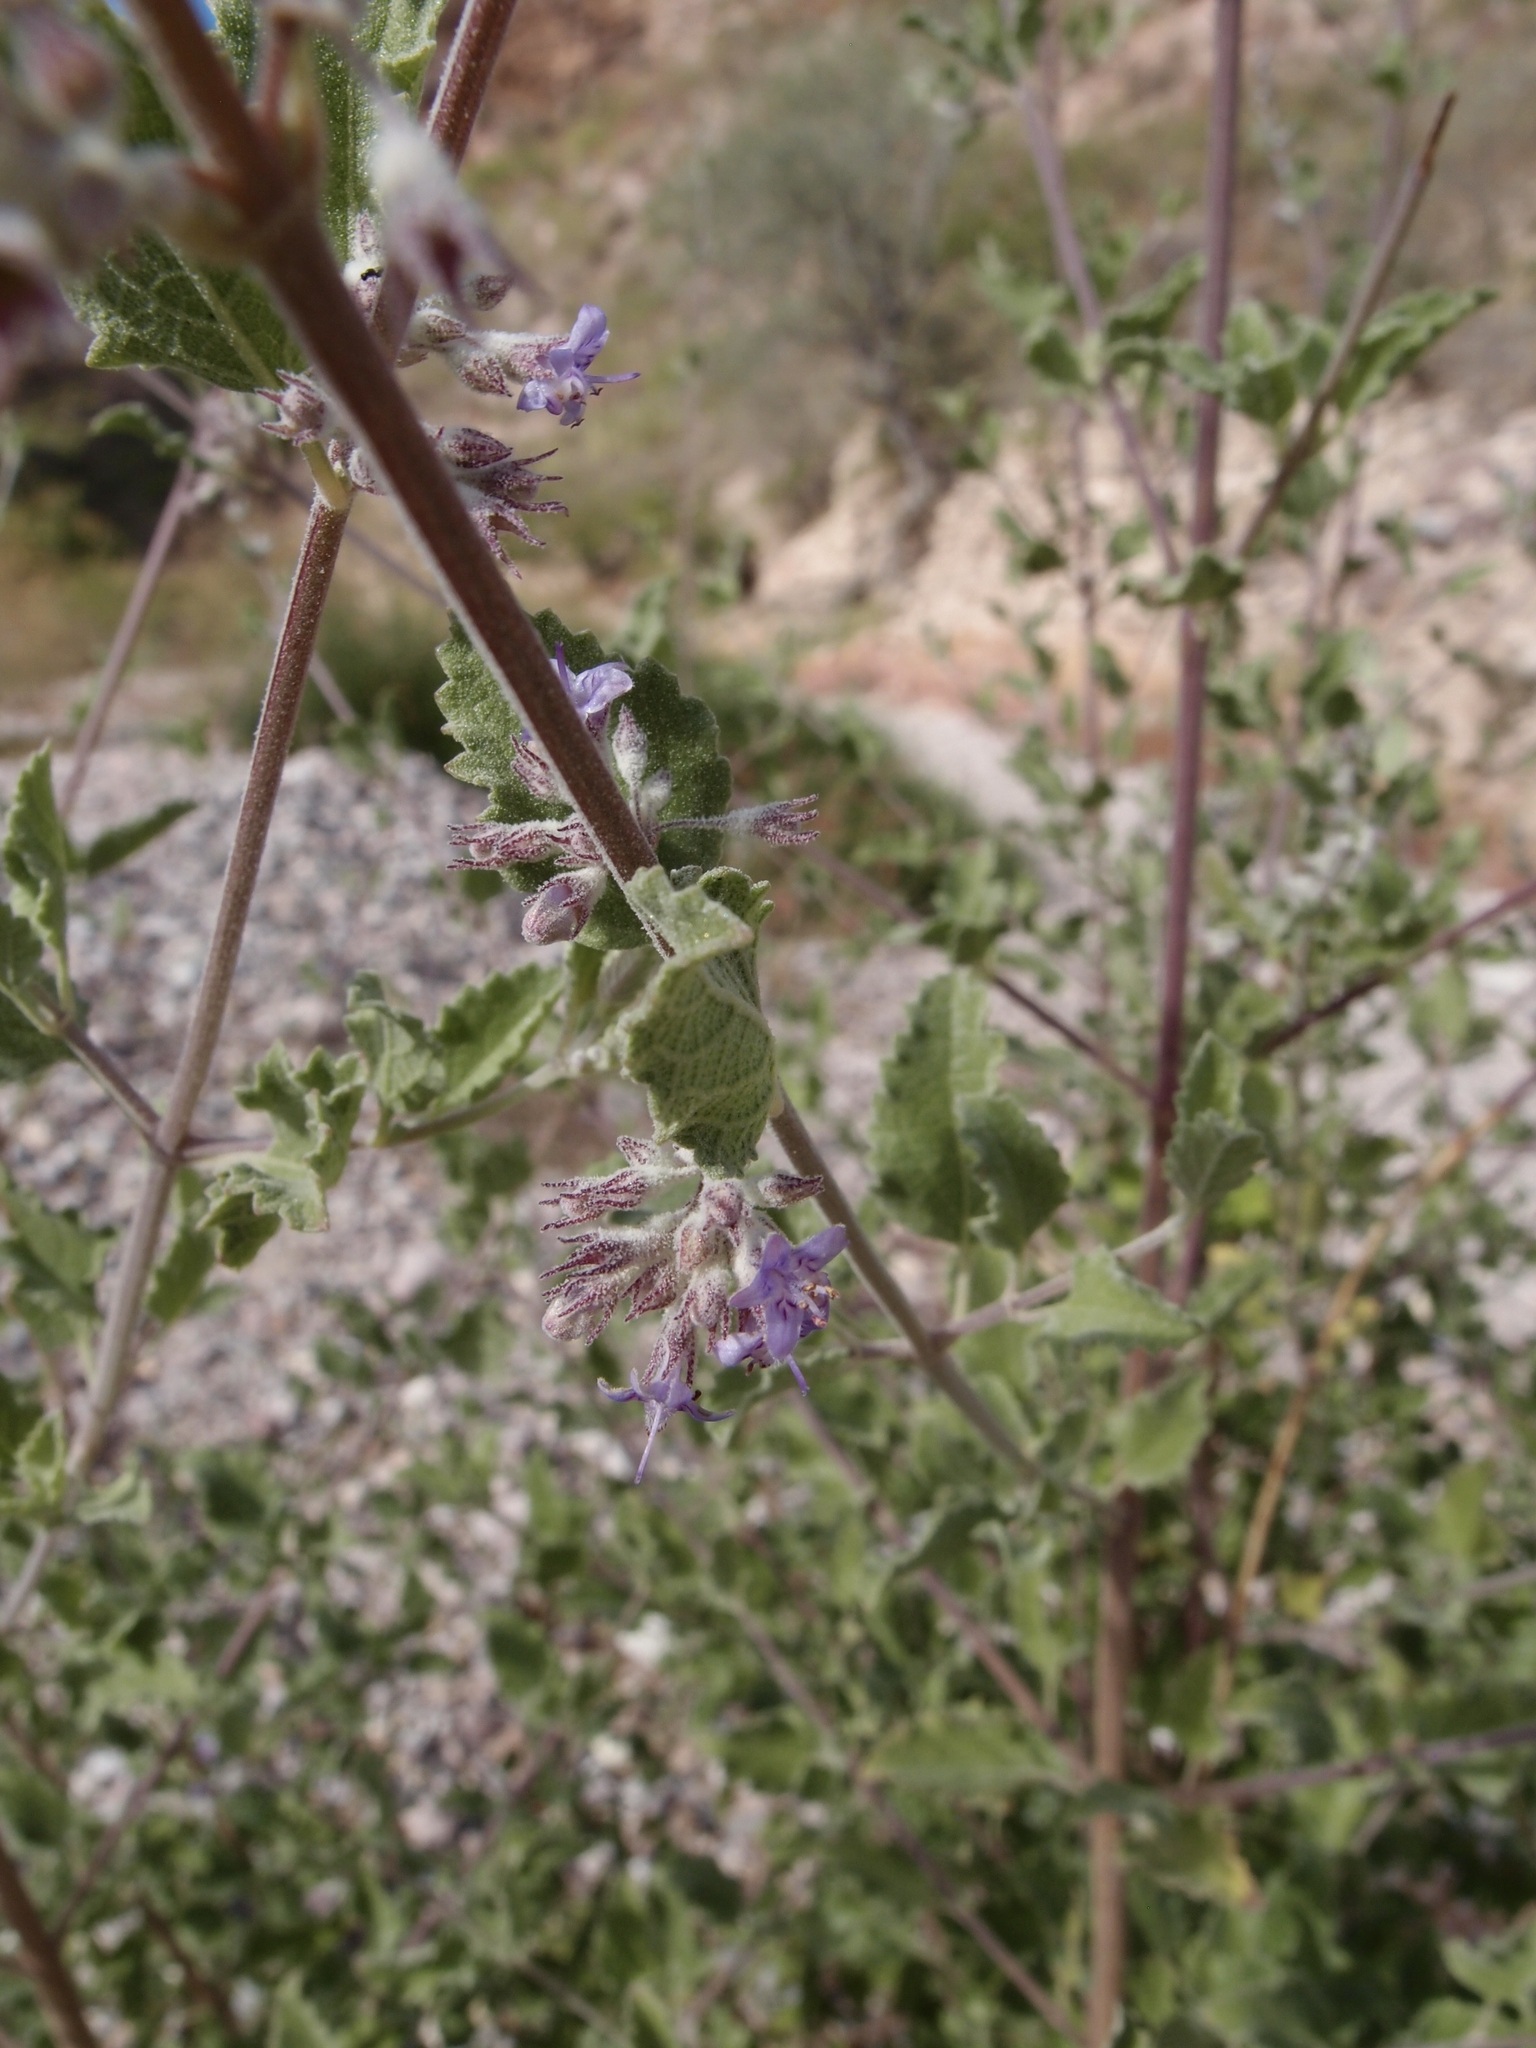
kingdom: Plantae
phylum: Tracheophyta
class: Magnoliopsida
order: Lamiales
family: Lamiaceae
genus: Condea
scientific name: Condea emoryi
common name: Chia
